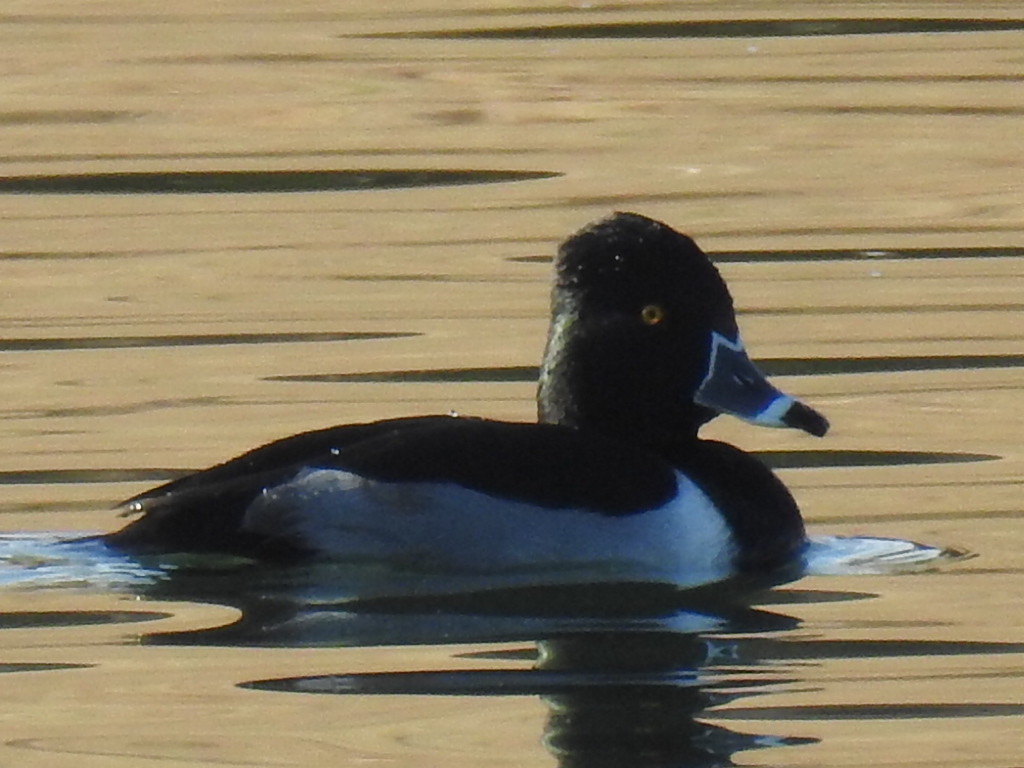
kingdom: Animalia
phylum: Chordata
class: Aves
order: Anseriformes
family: Anatidae
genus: Aythya
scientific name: Aythya collaris
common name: Ring-necked duck
